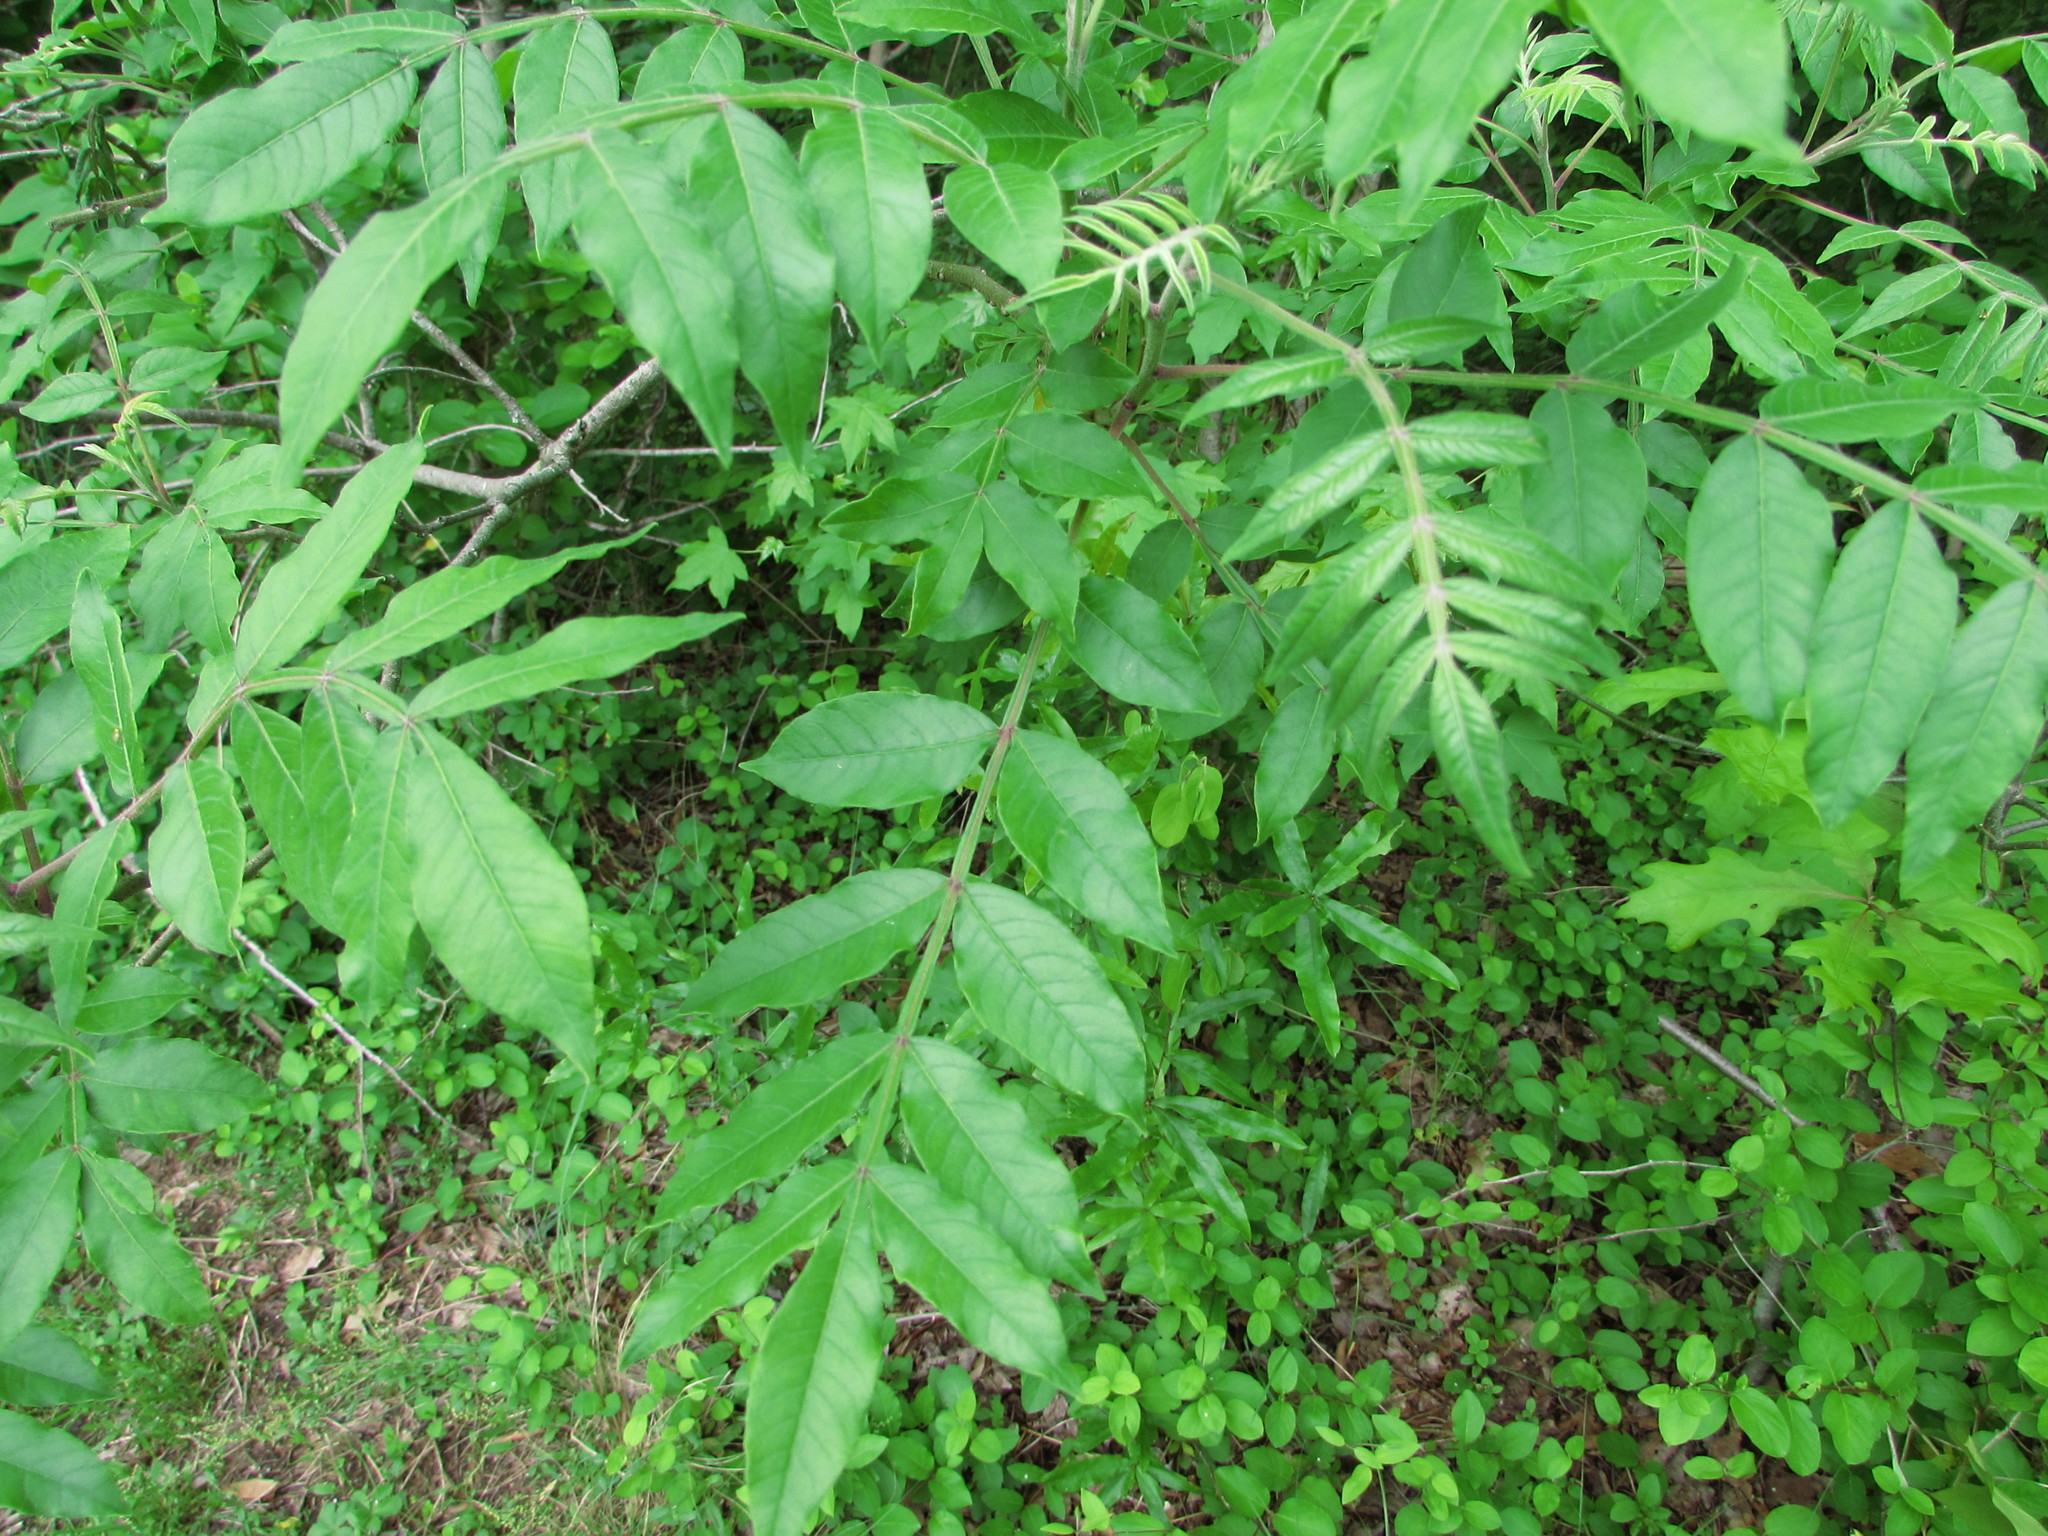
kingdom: Plantae
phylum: Tracheophyta
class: Magnoliopsida
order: Sapindales
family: Anacardiaceae
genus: Rhus
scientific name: Rhus copallina
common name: Shining sumac
